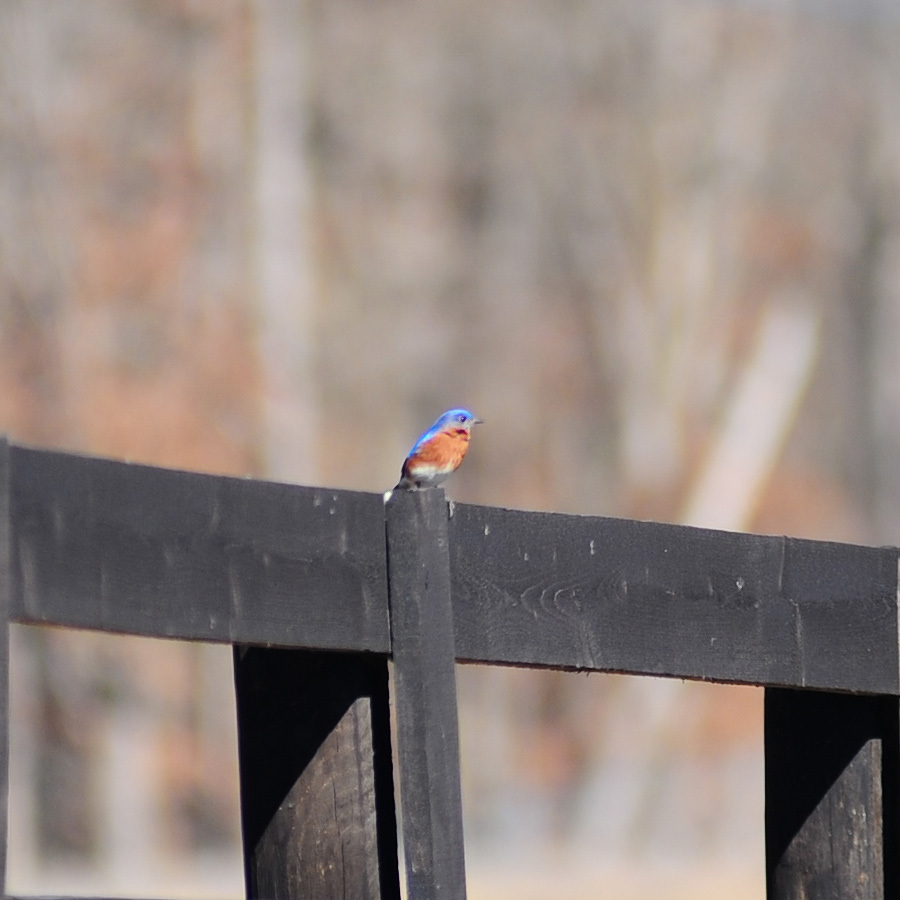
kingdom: Animalia
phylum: Chordata
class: Aves
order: Passeriformes
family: Turdidae
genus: Sialia
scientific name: Sialia sialis
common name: Eastern bluebird
